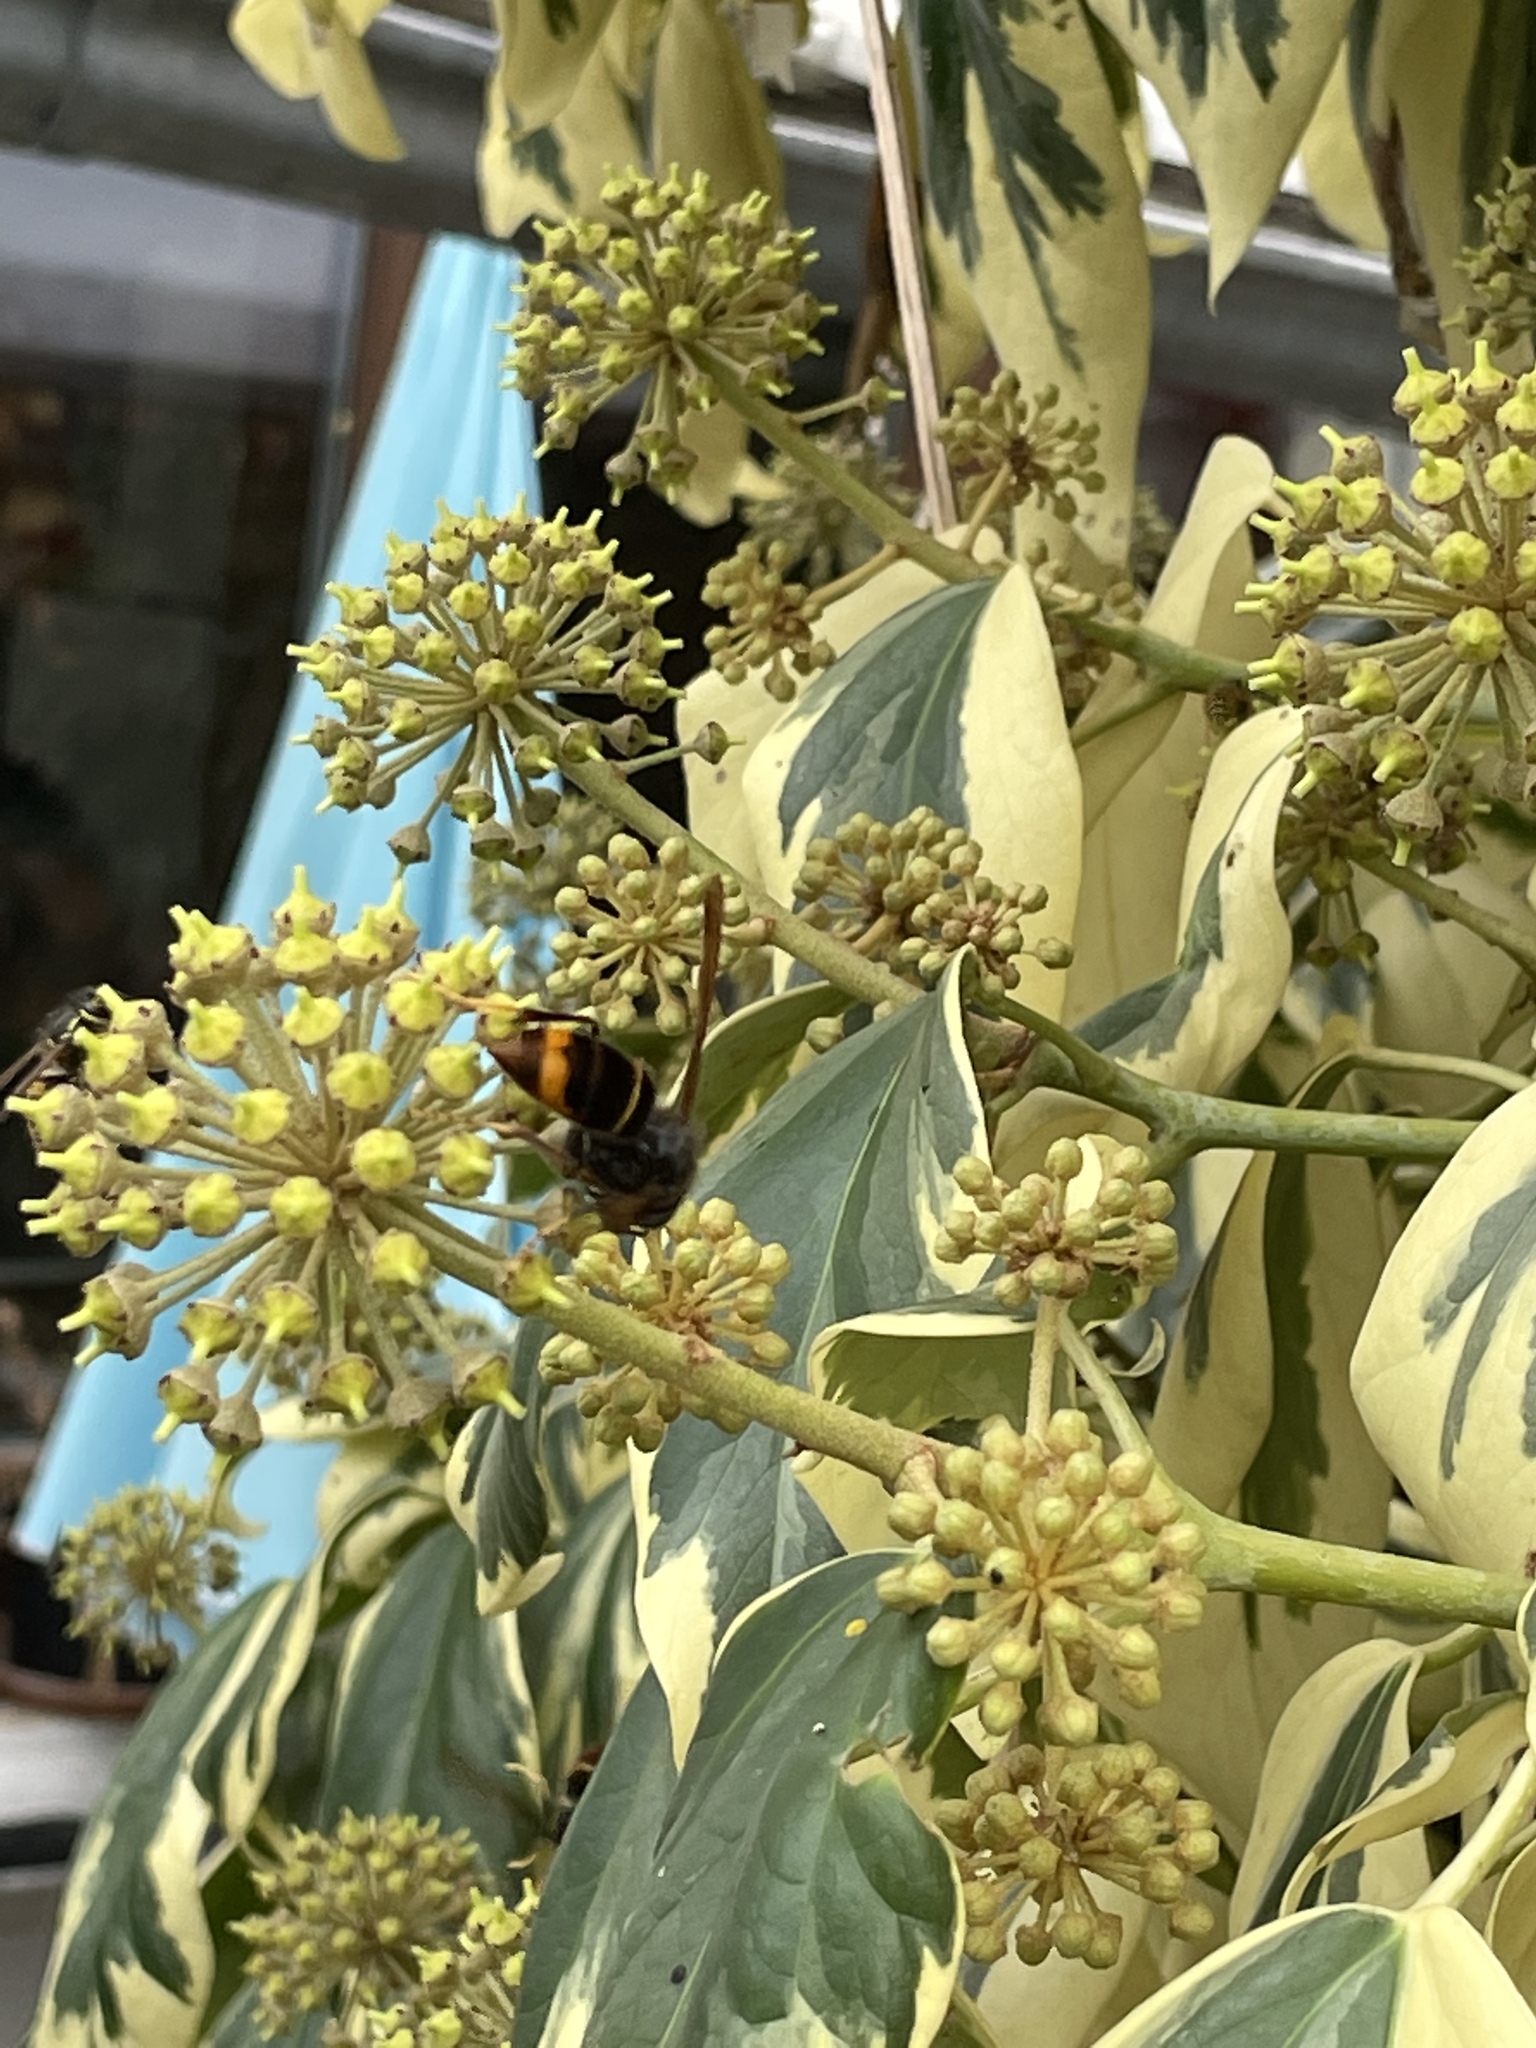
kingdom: Animalia
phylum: Arthropoda
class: Insecta
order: Hymenoptera
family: Vespidae
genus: Vespa
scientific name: Vespa velutina
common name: Asian hornet
